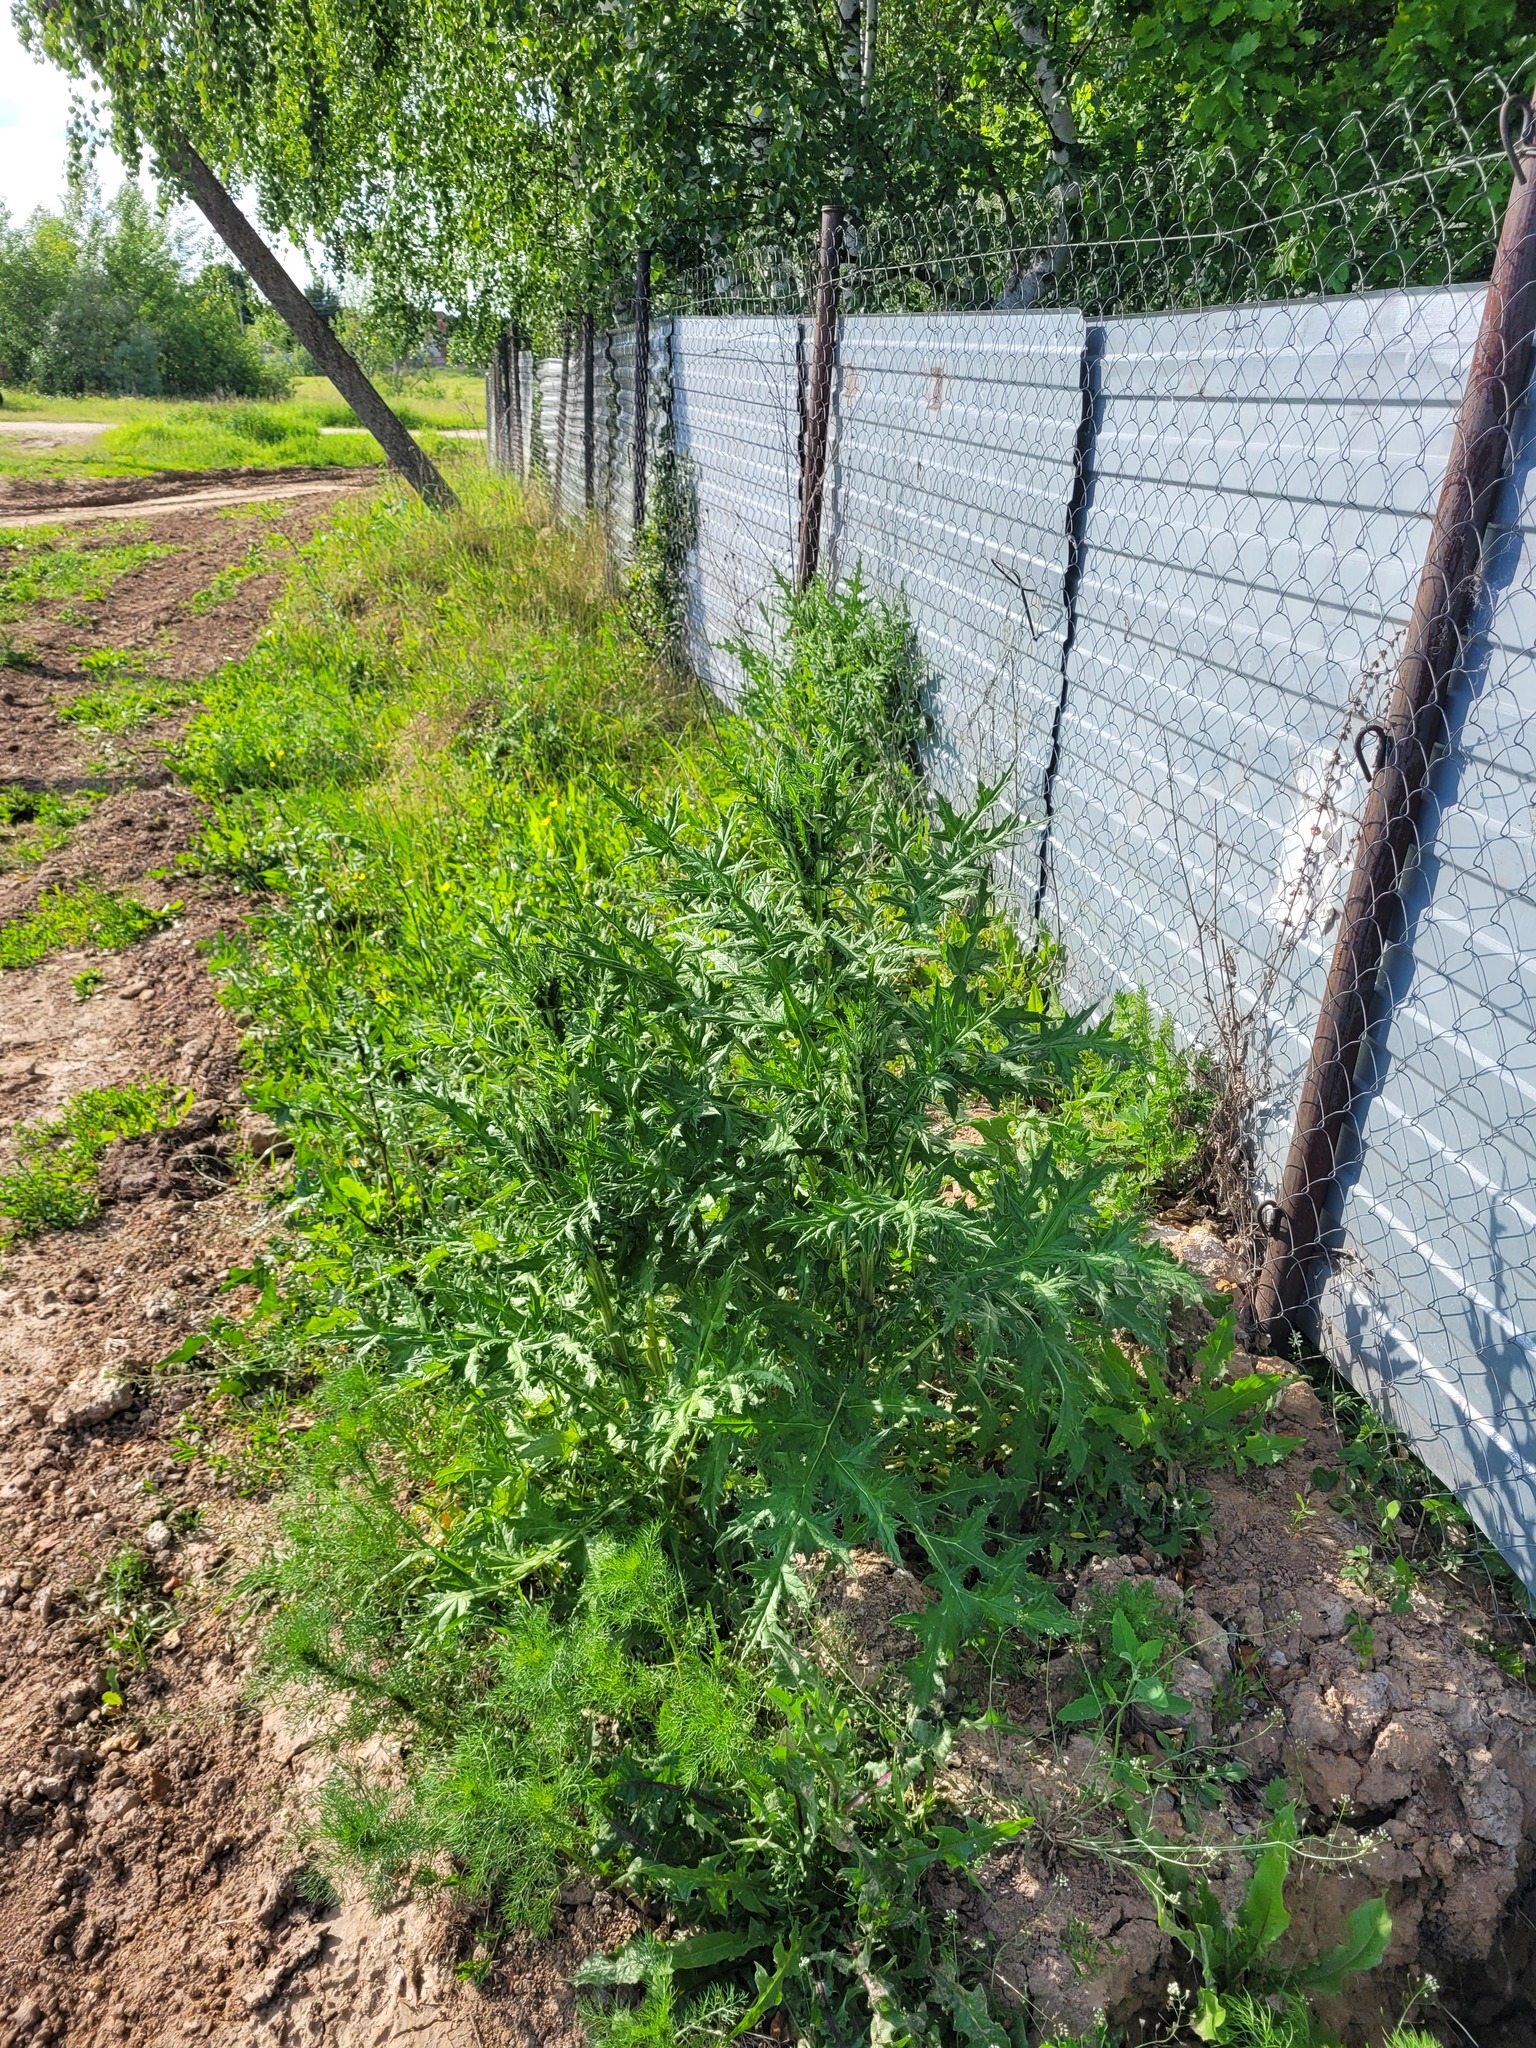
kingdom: Plantae
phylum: Tracheophyta
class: Magnoliopsida
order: Asterales
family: Asteraceae
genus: Echinops
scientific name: Echinops sphaerocephalus
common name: Glandular globe-thistle
